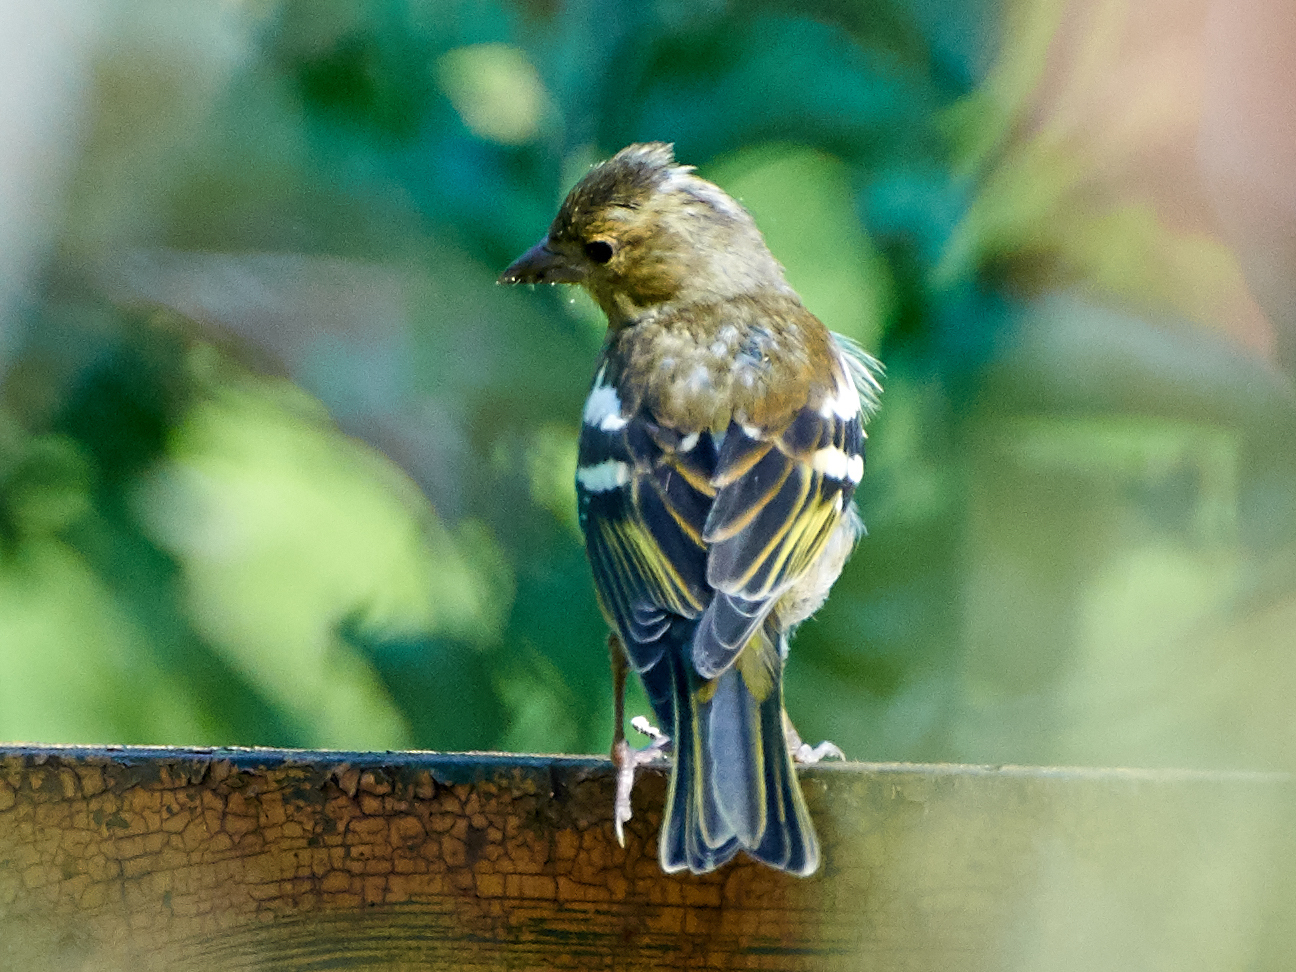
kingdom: Animalia
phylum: Chordata
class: Aves
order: Passeriformes
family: Fringillidae
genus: Fringilla
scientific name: Fringilla coelebs
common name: Common chaffinch
